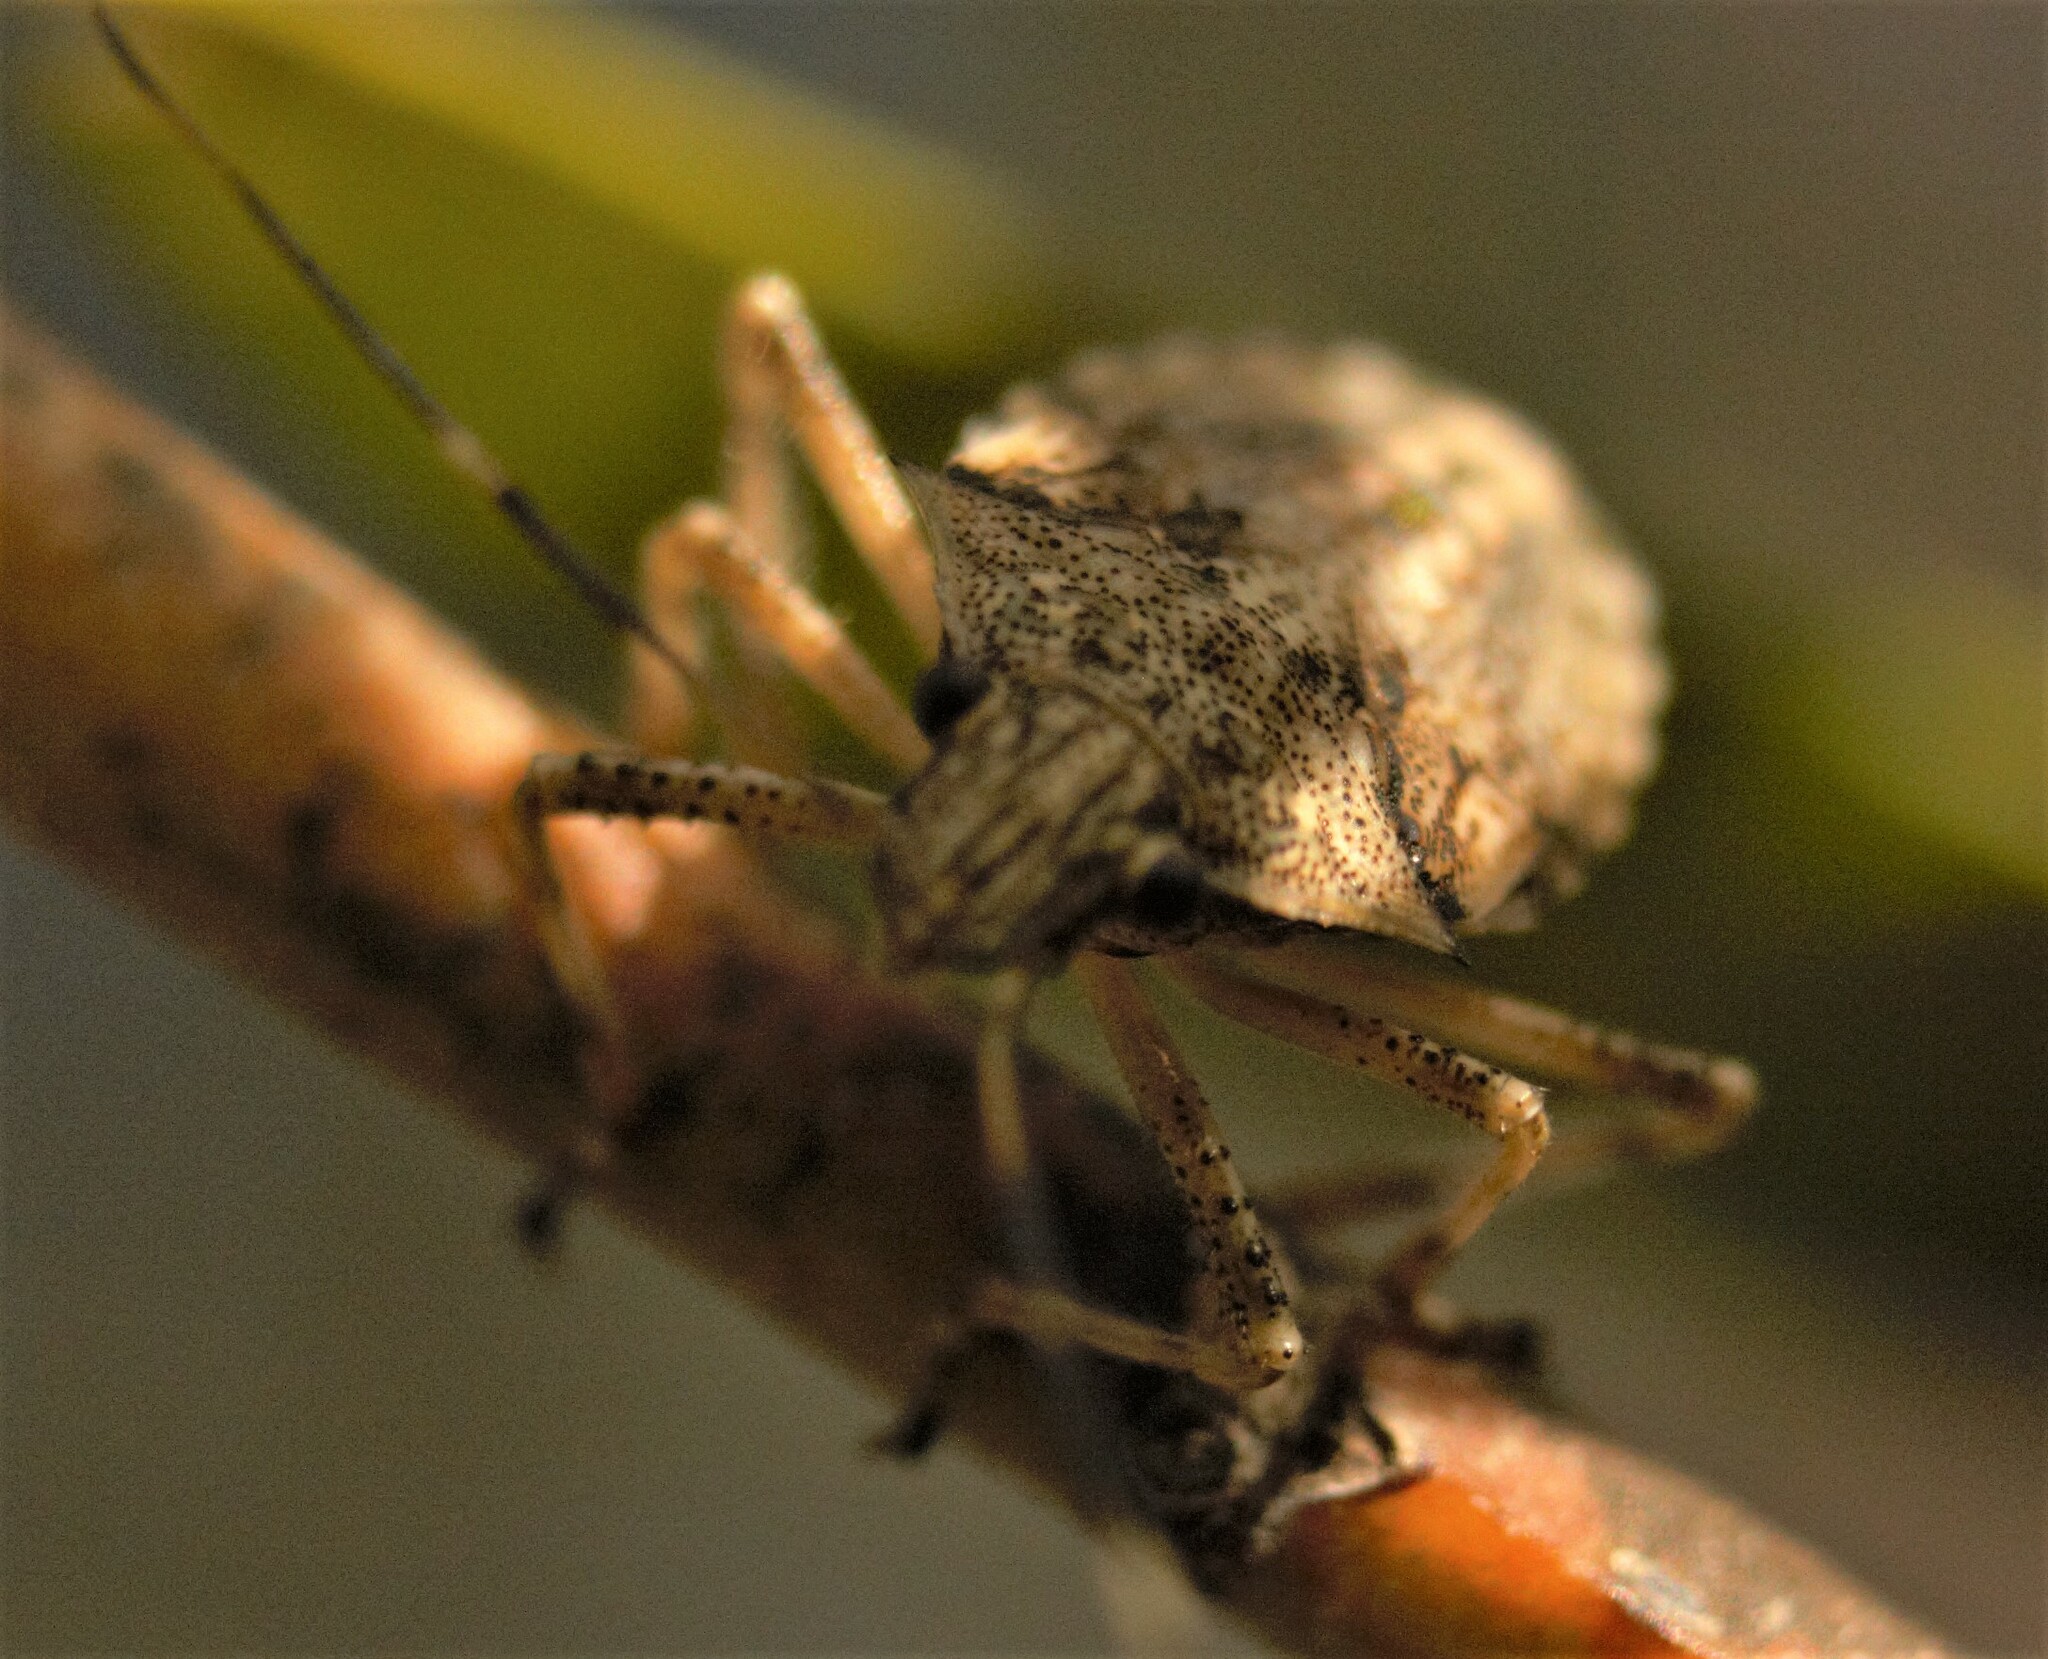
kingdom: Animalia
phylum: Arthropoda
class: Insecta
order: Hemiptera
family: Pentatomidae
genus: Bromocoris
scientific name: Bromocoris
